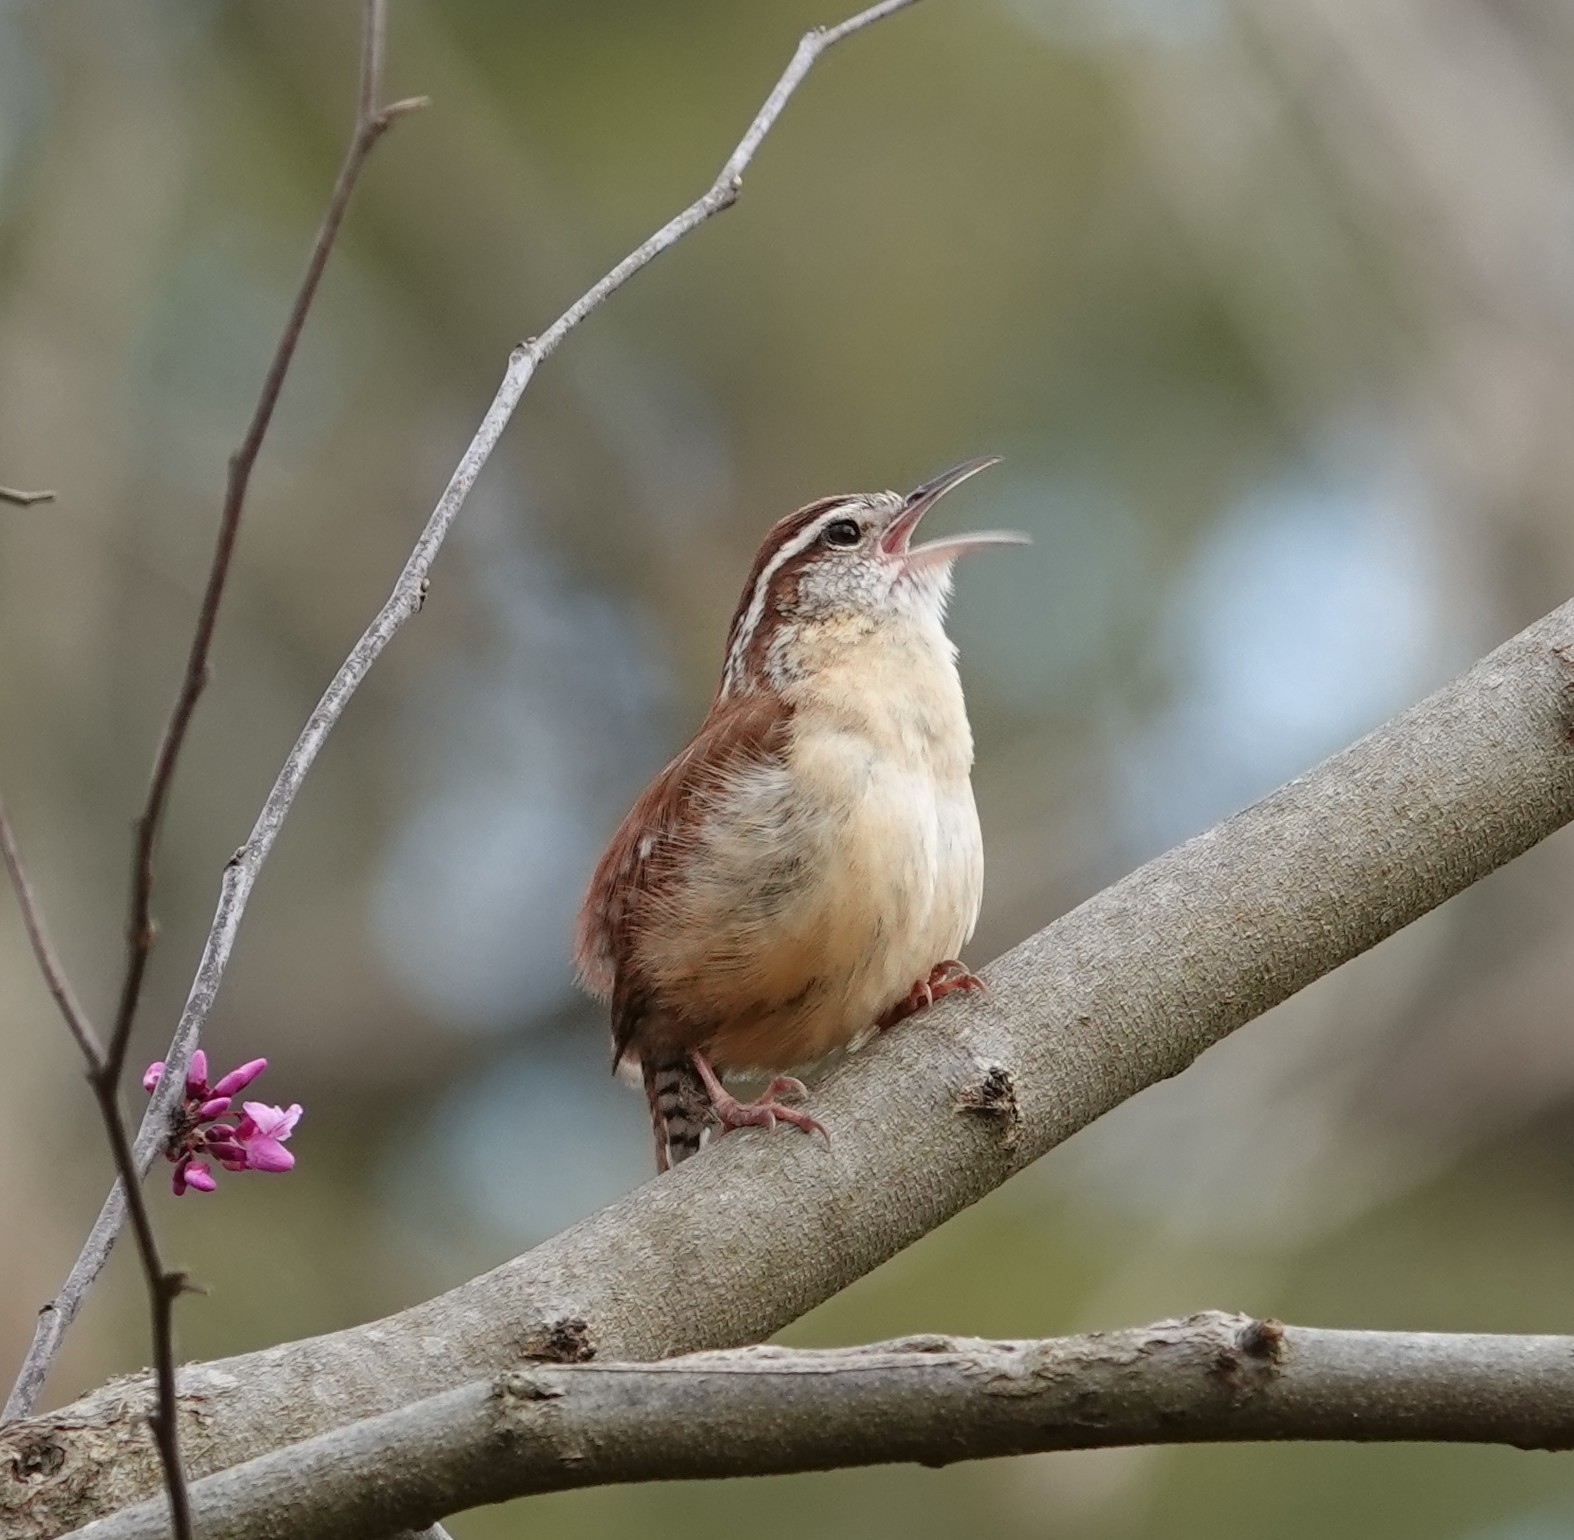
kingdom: Animalia
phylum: Chordata
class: Aves
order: Passeriformes
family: Troglodytidae
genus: Thryothorus
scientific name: Thryothorus ludovicianus
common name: Carolina wren
